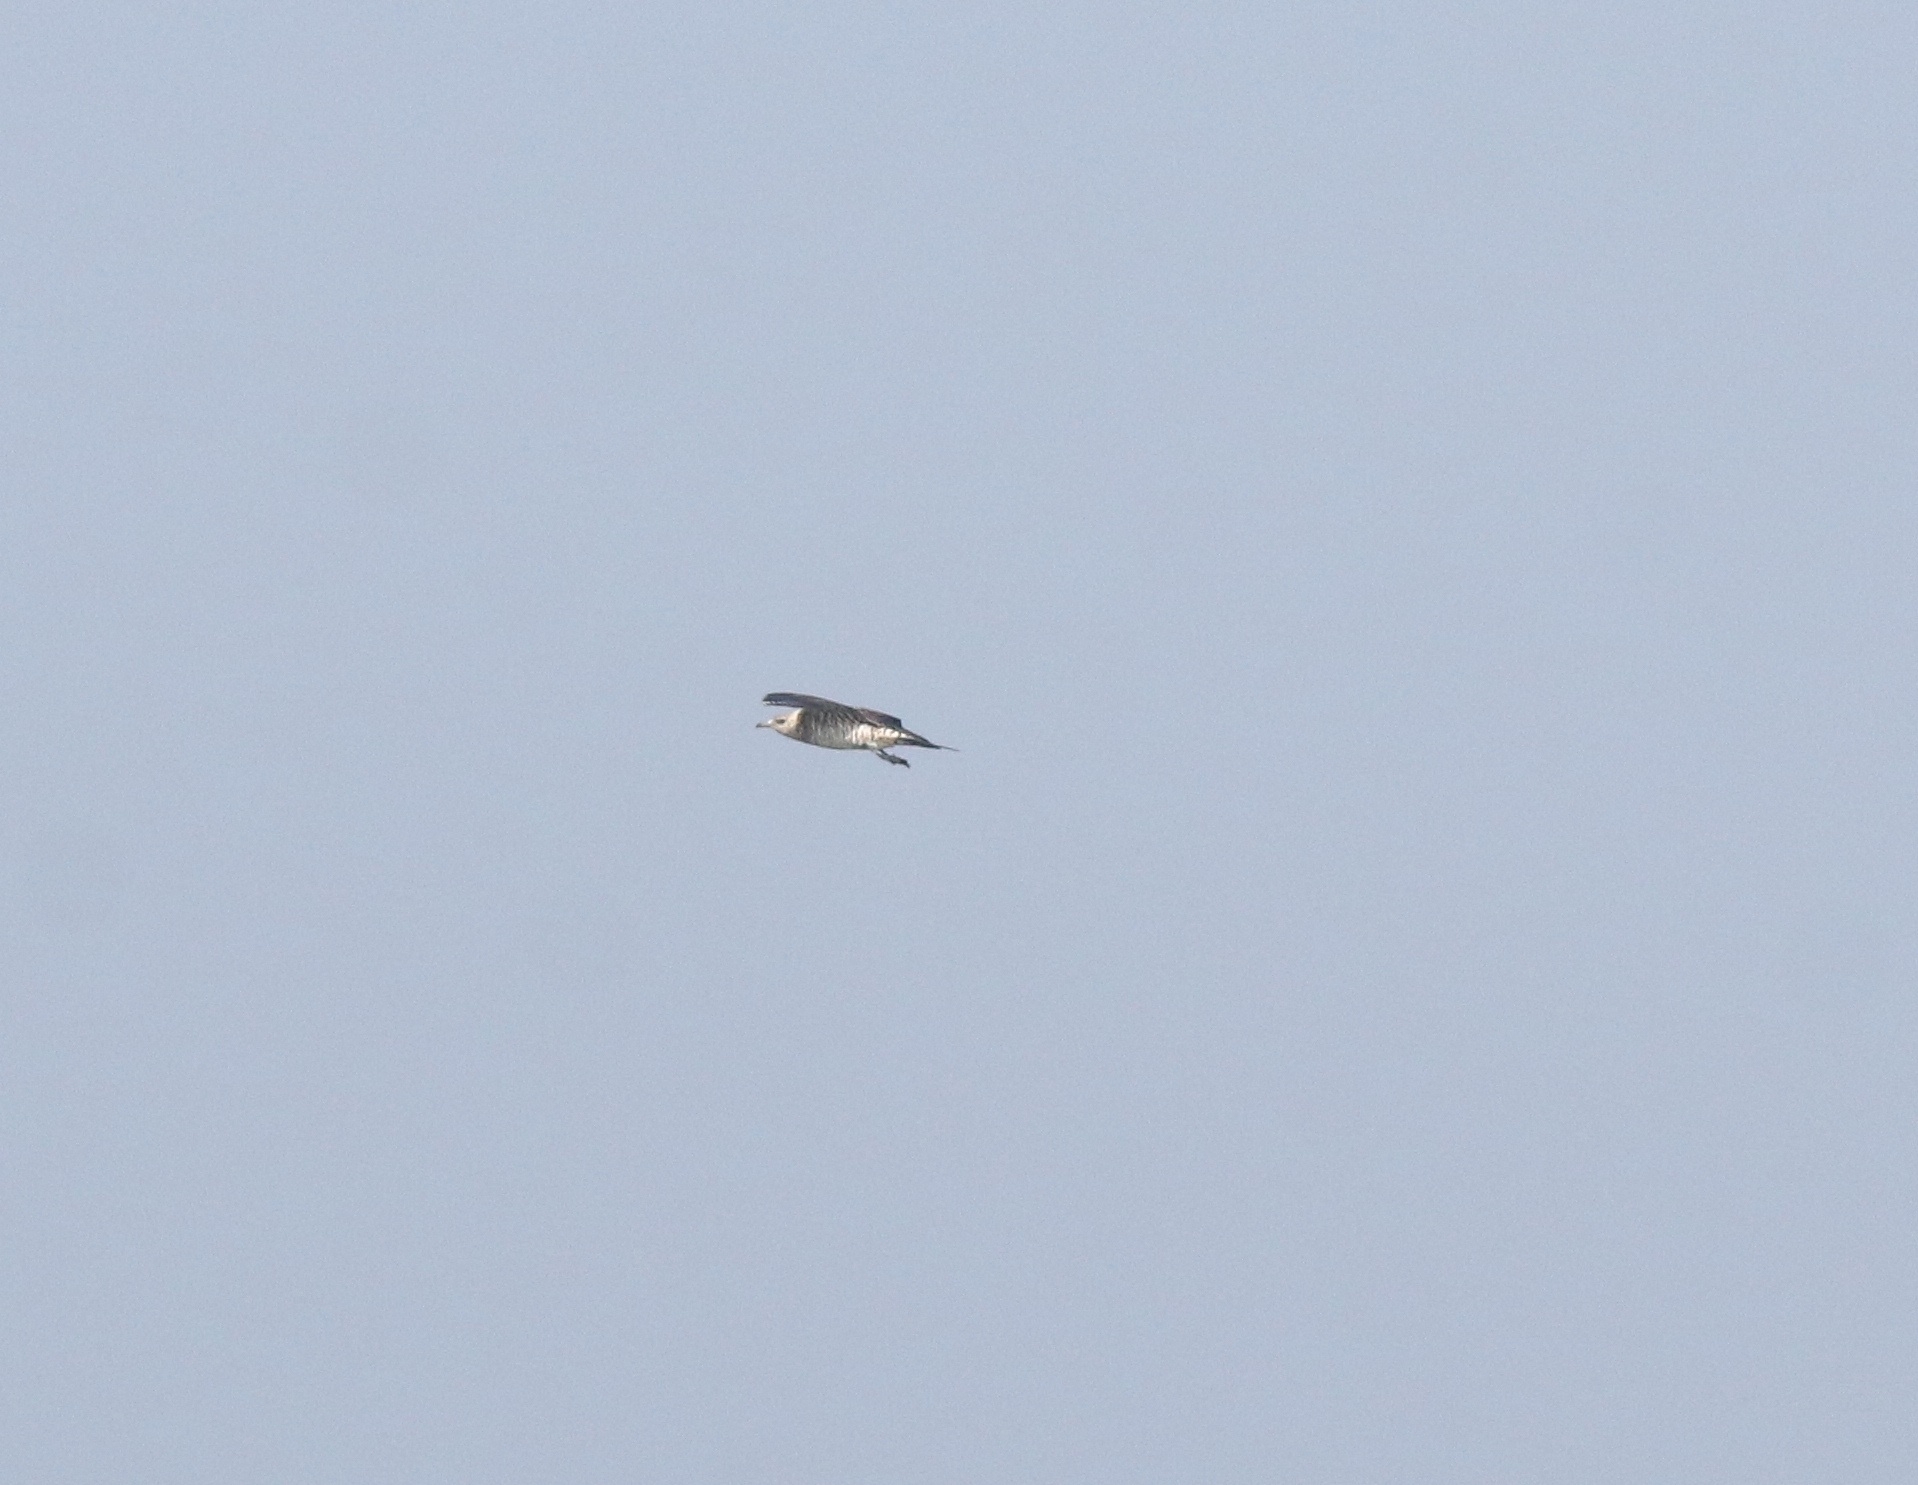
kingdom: Animalia
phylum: Chordata
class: Aves
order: Charadriiformes
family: Stercorariidae
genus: Stercorarius
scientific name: Stercorarius parasiticus
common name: Parasitic jaeger
